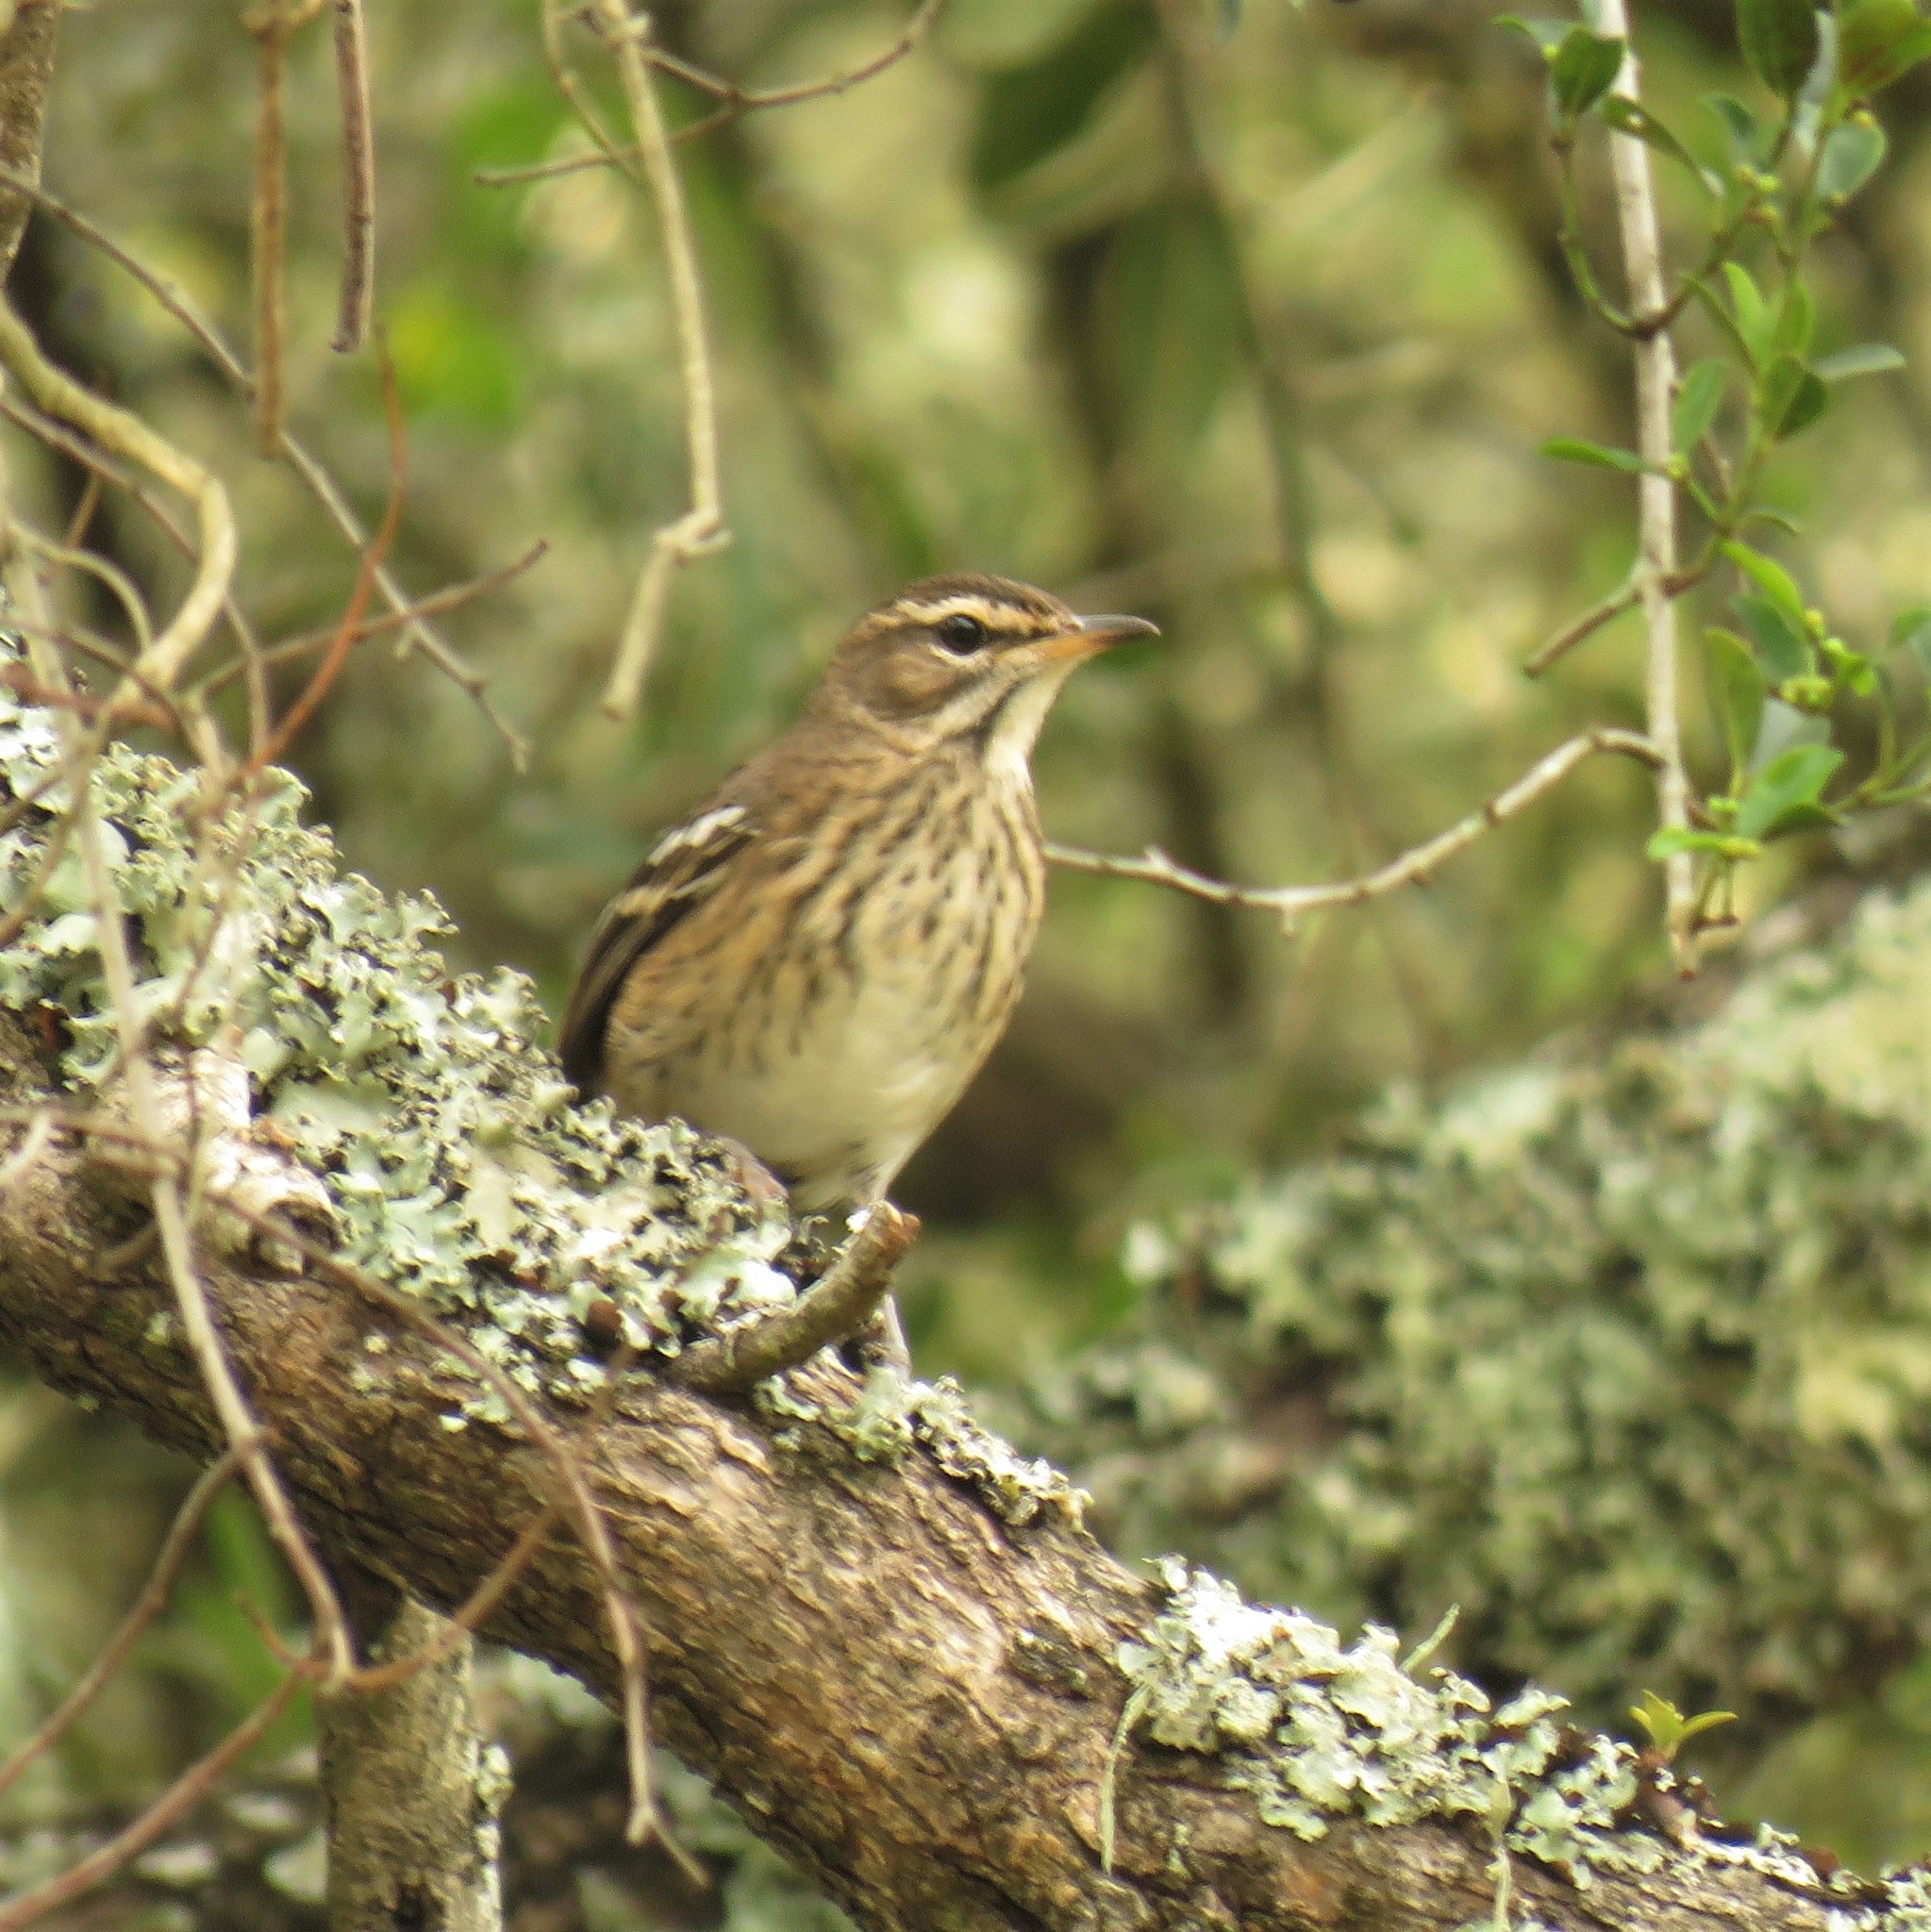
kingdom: Animalia
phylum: Chordata
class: Aves
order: Passeriformes
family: Muscicapidae
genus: Erythropygia
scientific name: Erythropygia leucophrys
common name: White-browed scrub robin
